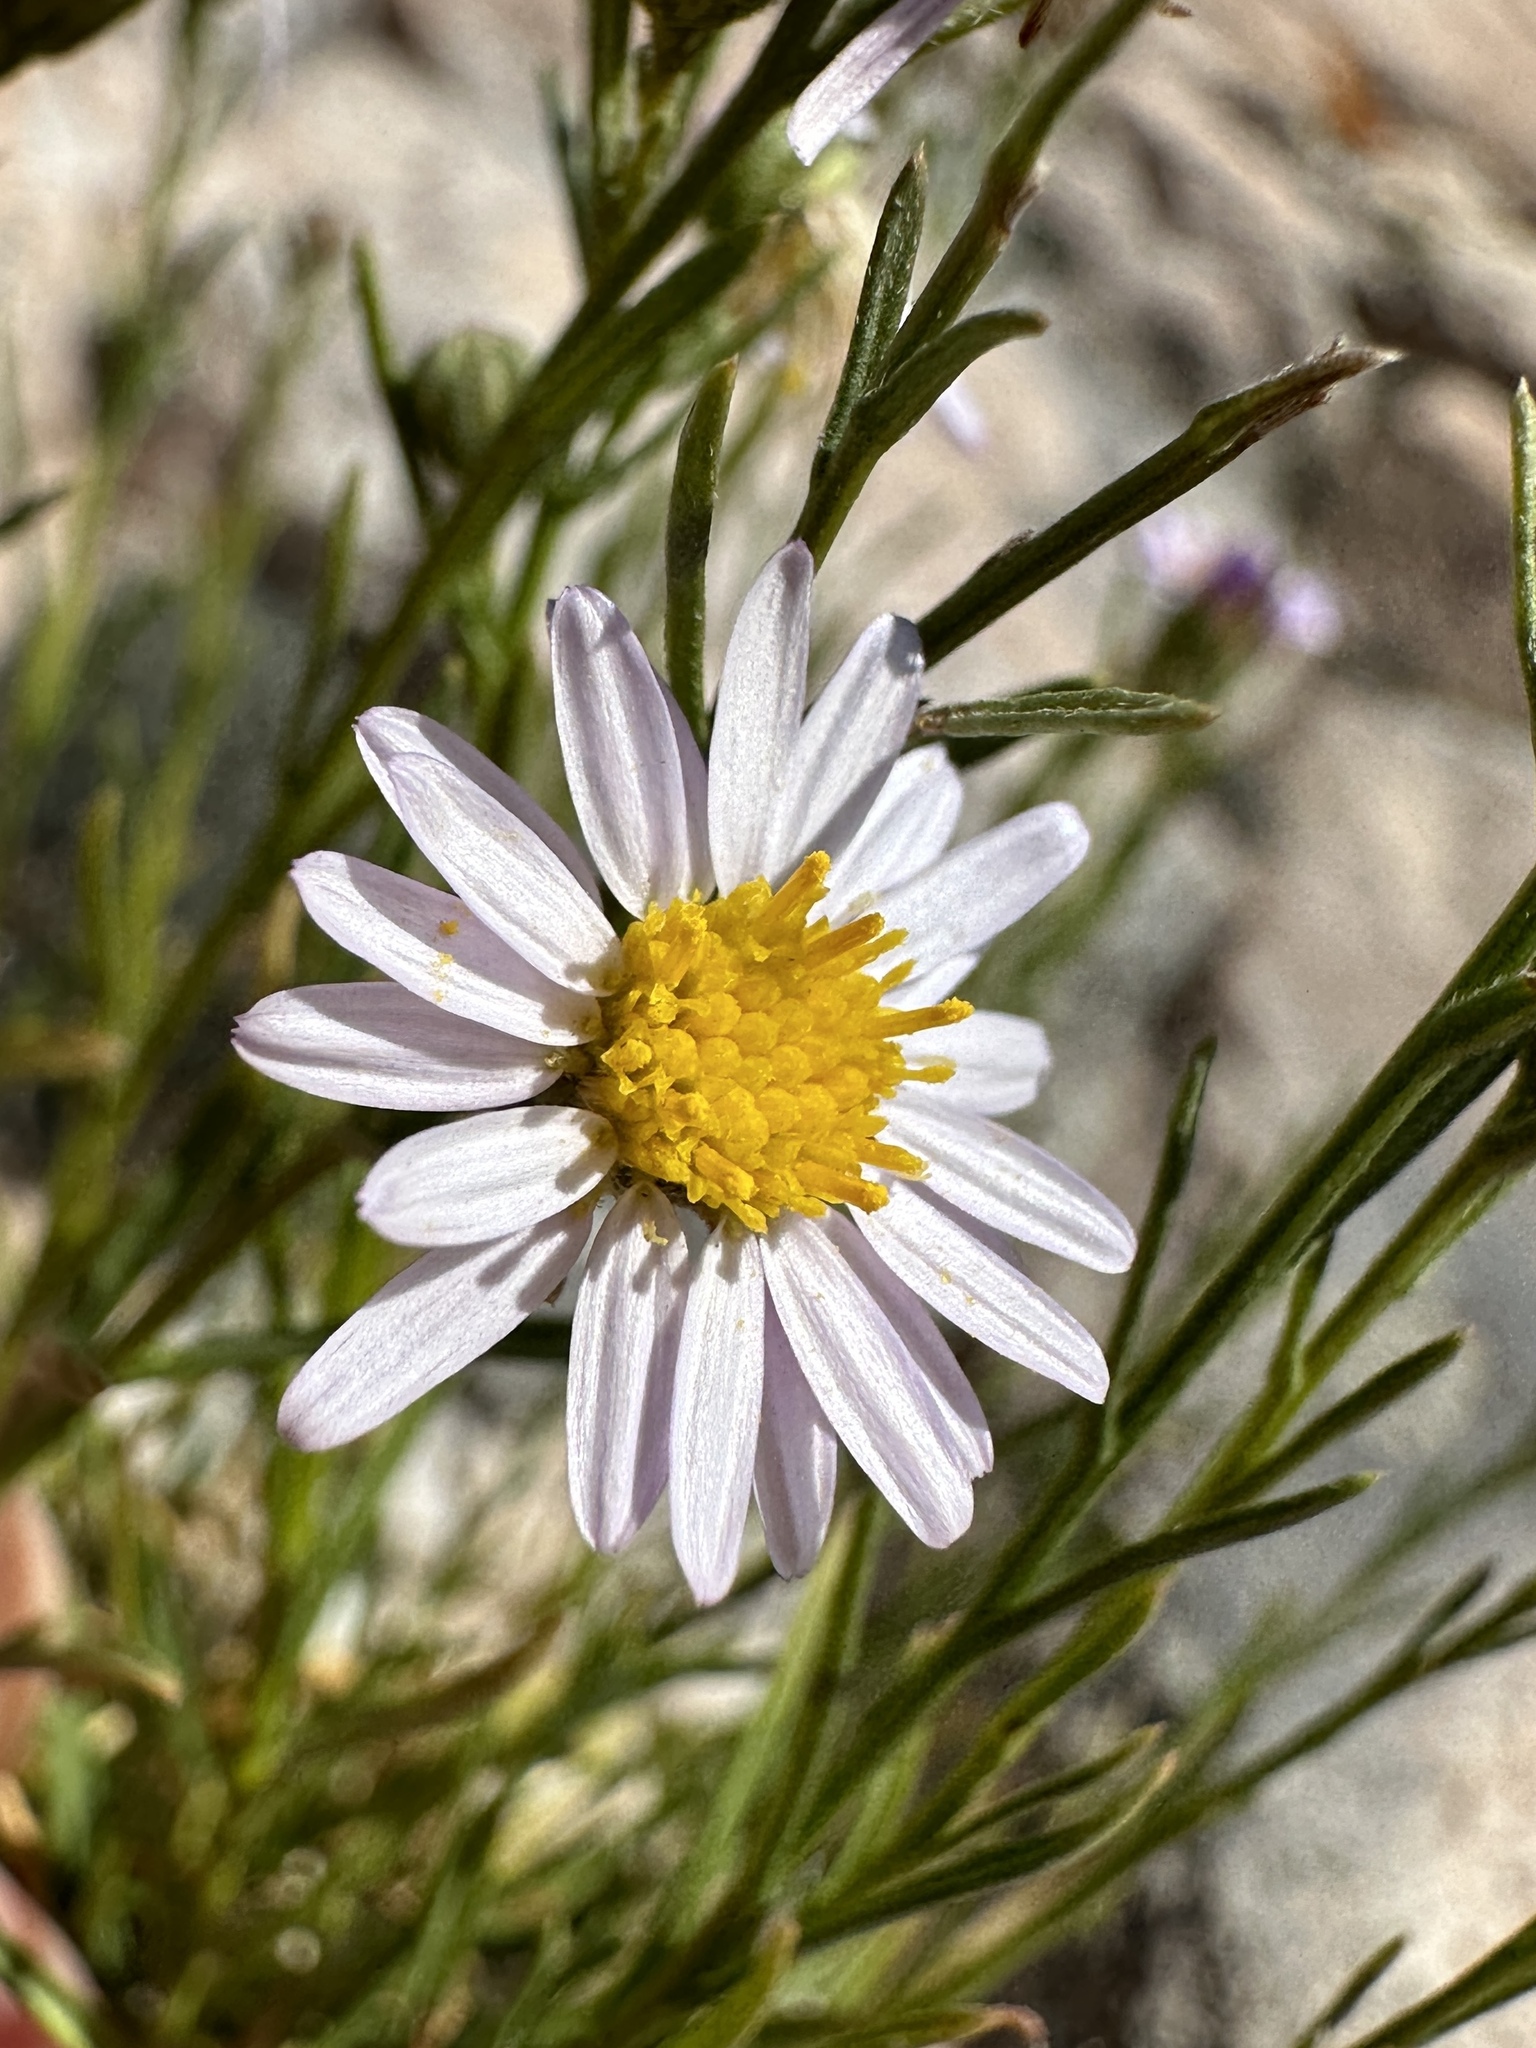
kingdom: Plantae
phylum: Tracheophyta
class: Magnoliopsida
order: Asterales
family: Asteraceae
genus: Erigeron
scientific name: Erigeron arenarioides
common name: Wasatch fleabane
